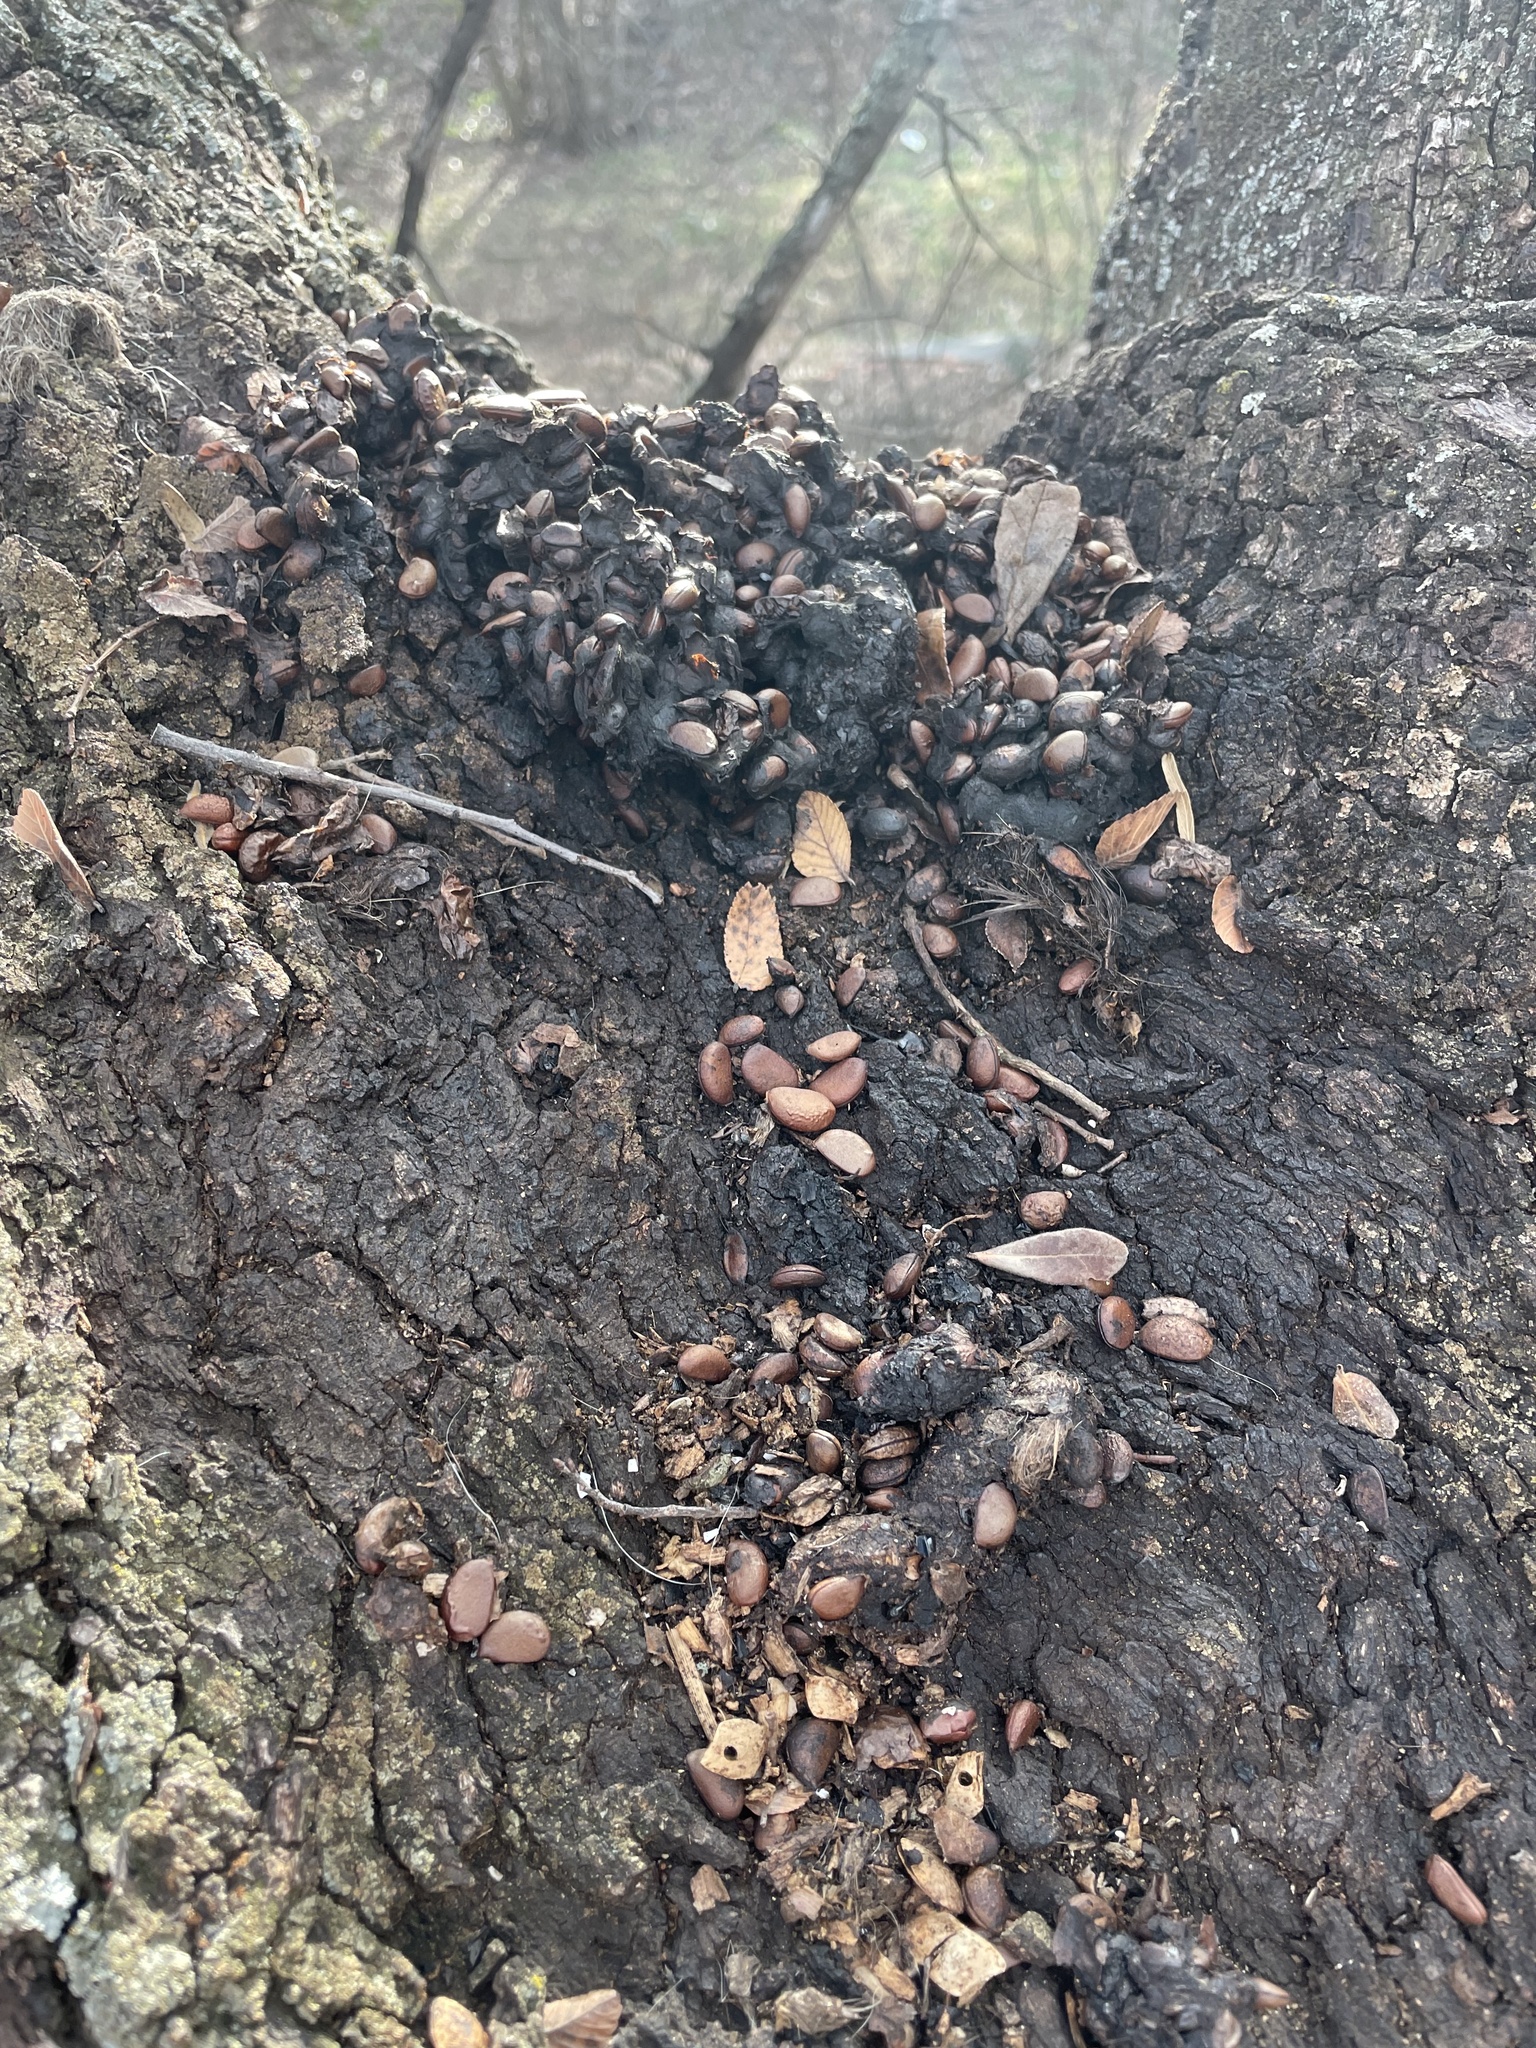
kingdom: Animalia
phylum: Chordata
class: Mammalia
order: Carnivora
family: Procyonidae
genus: Procyon
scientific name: Procyon lotor
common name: Raccoon
